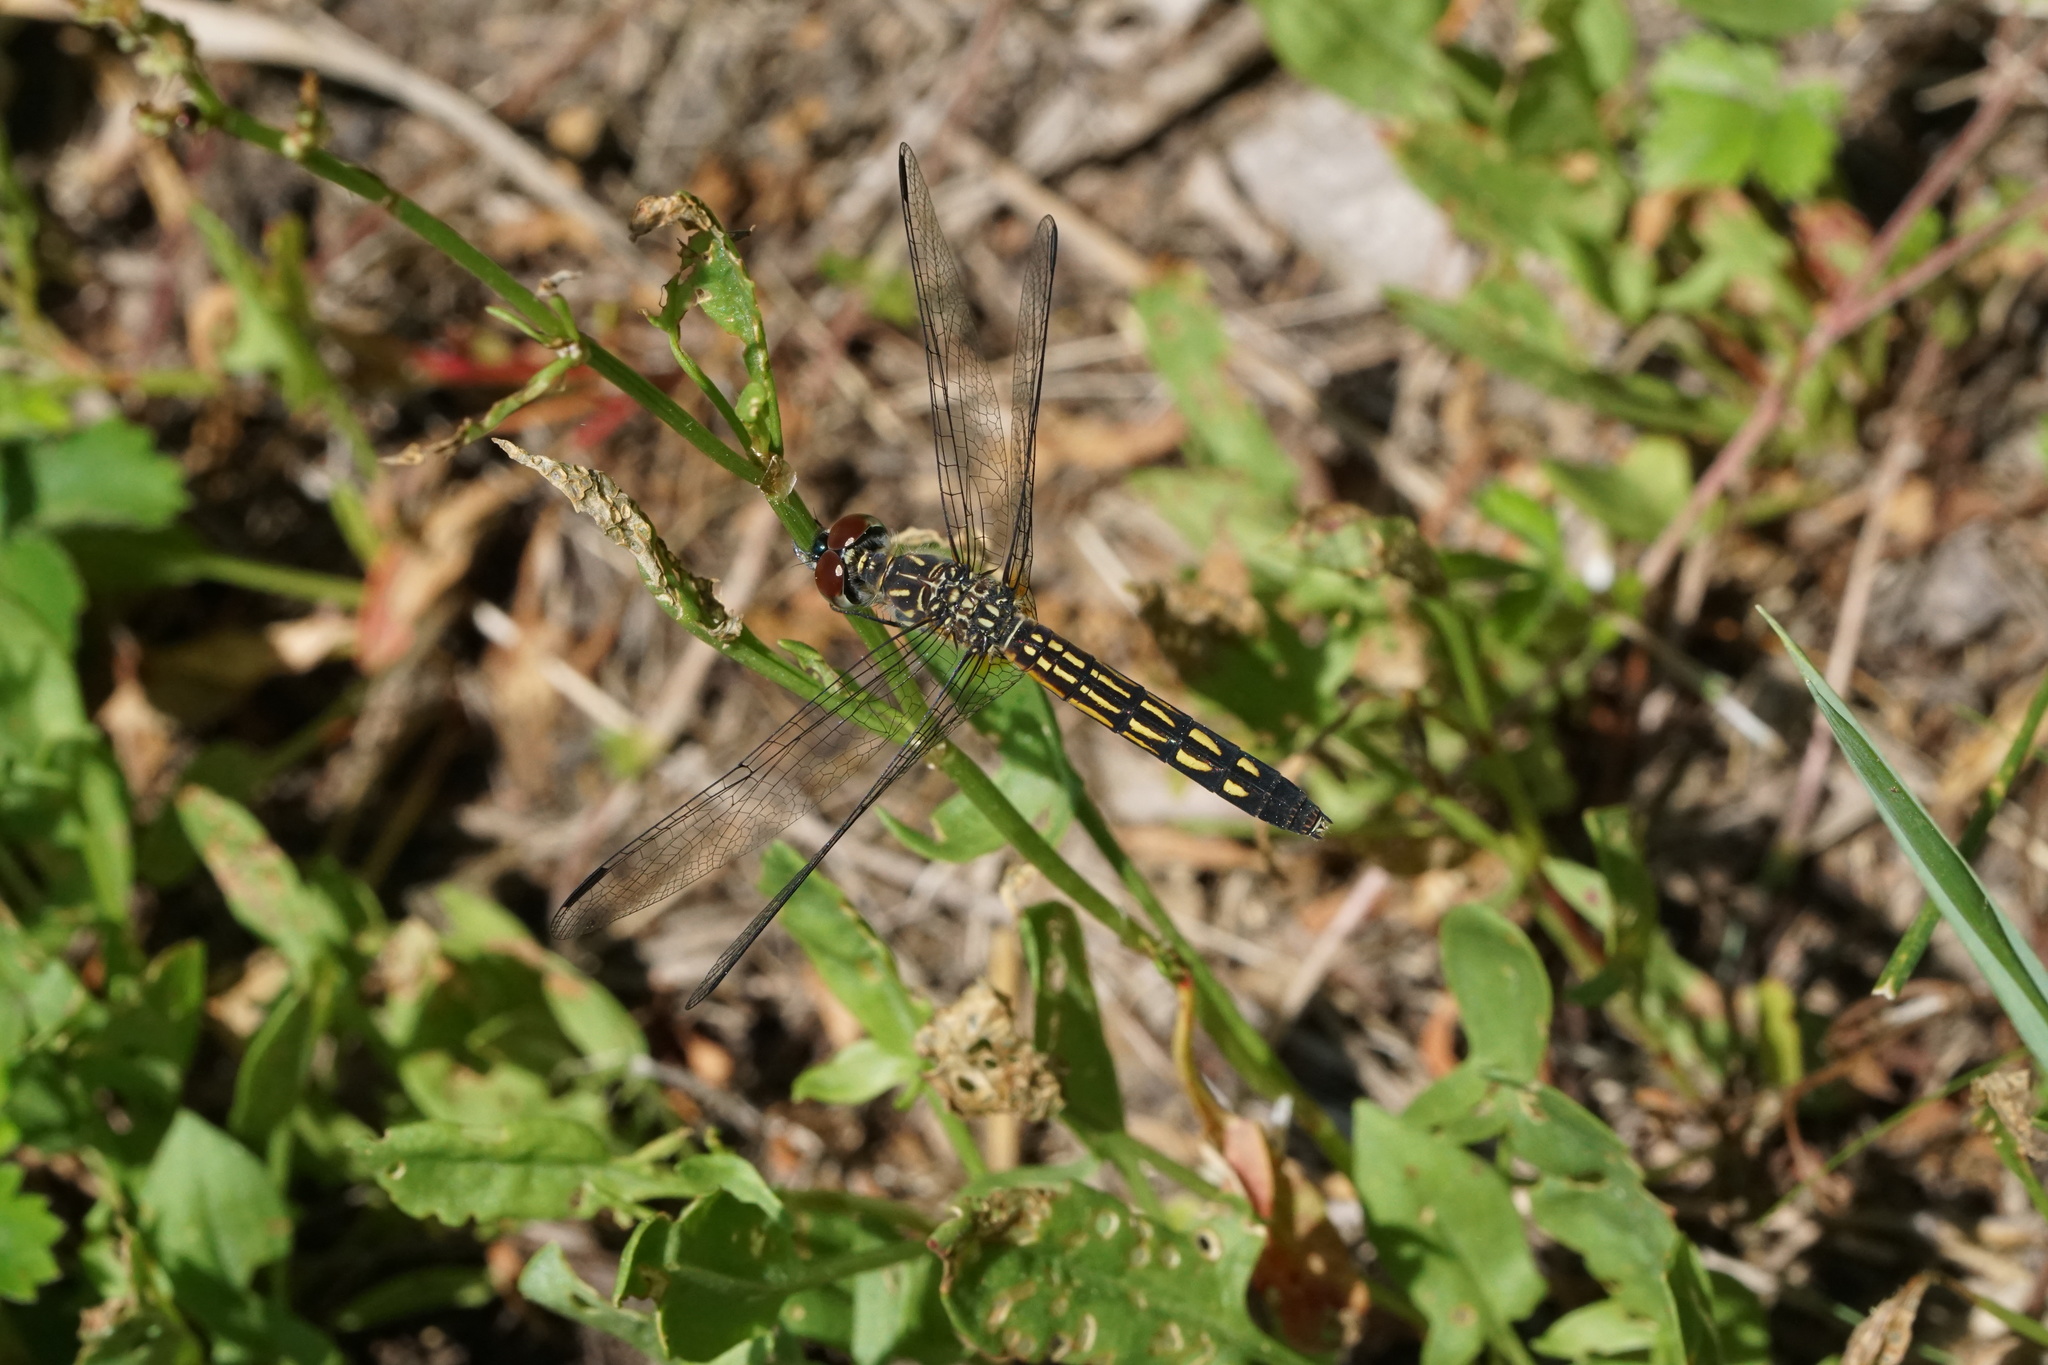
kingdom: Animalia
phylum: Arthropoda
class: Insecta
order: Odonata
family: Libellulidae
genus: Pachydiplax
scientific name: Pachydiplax longipennis
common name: Blue dasher
